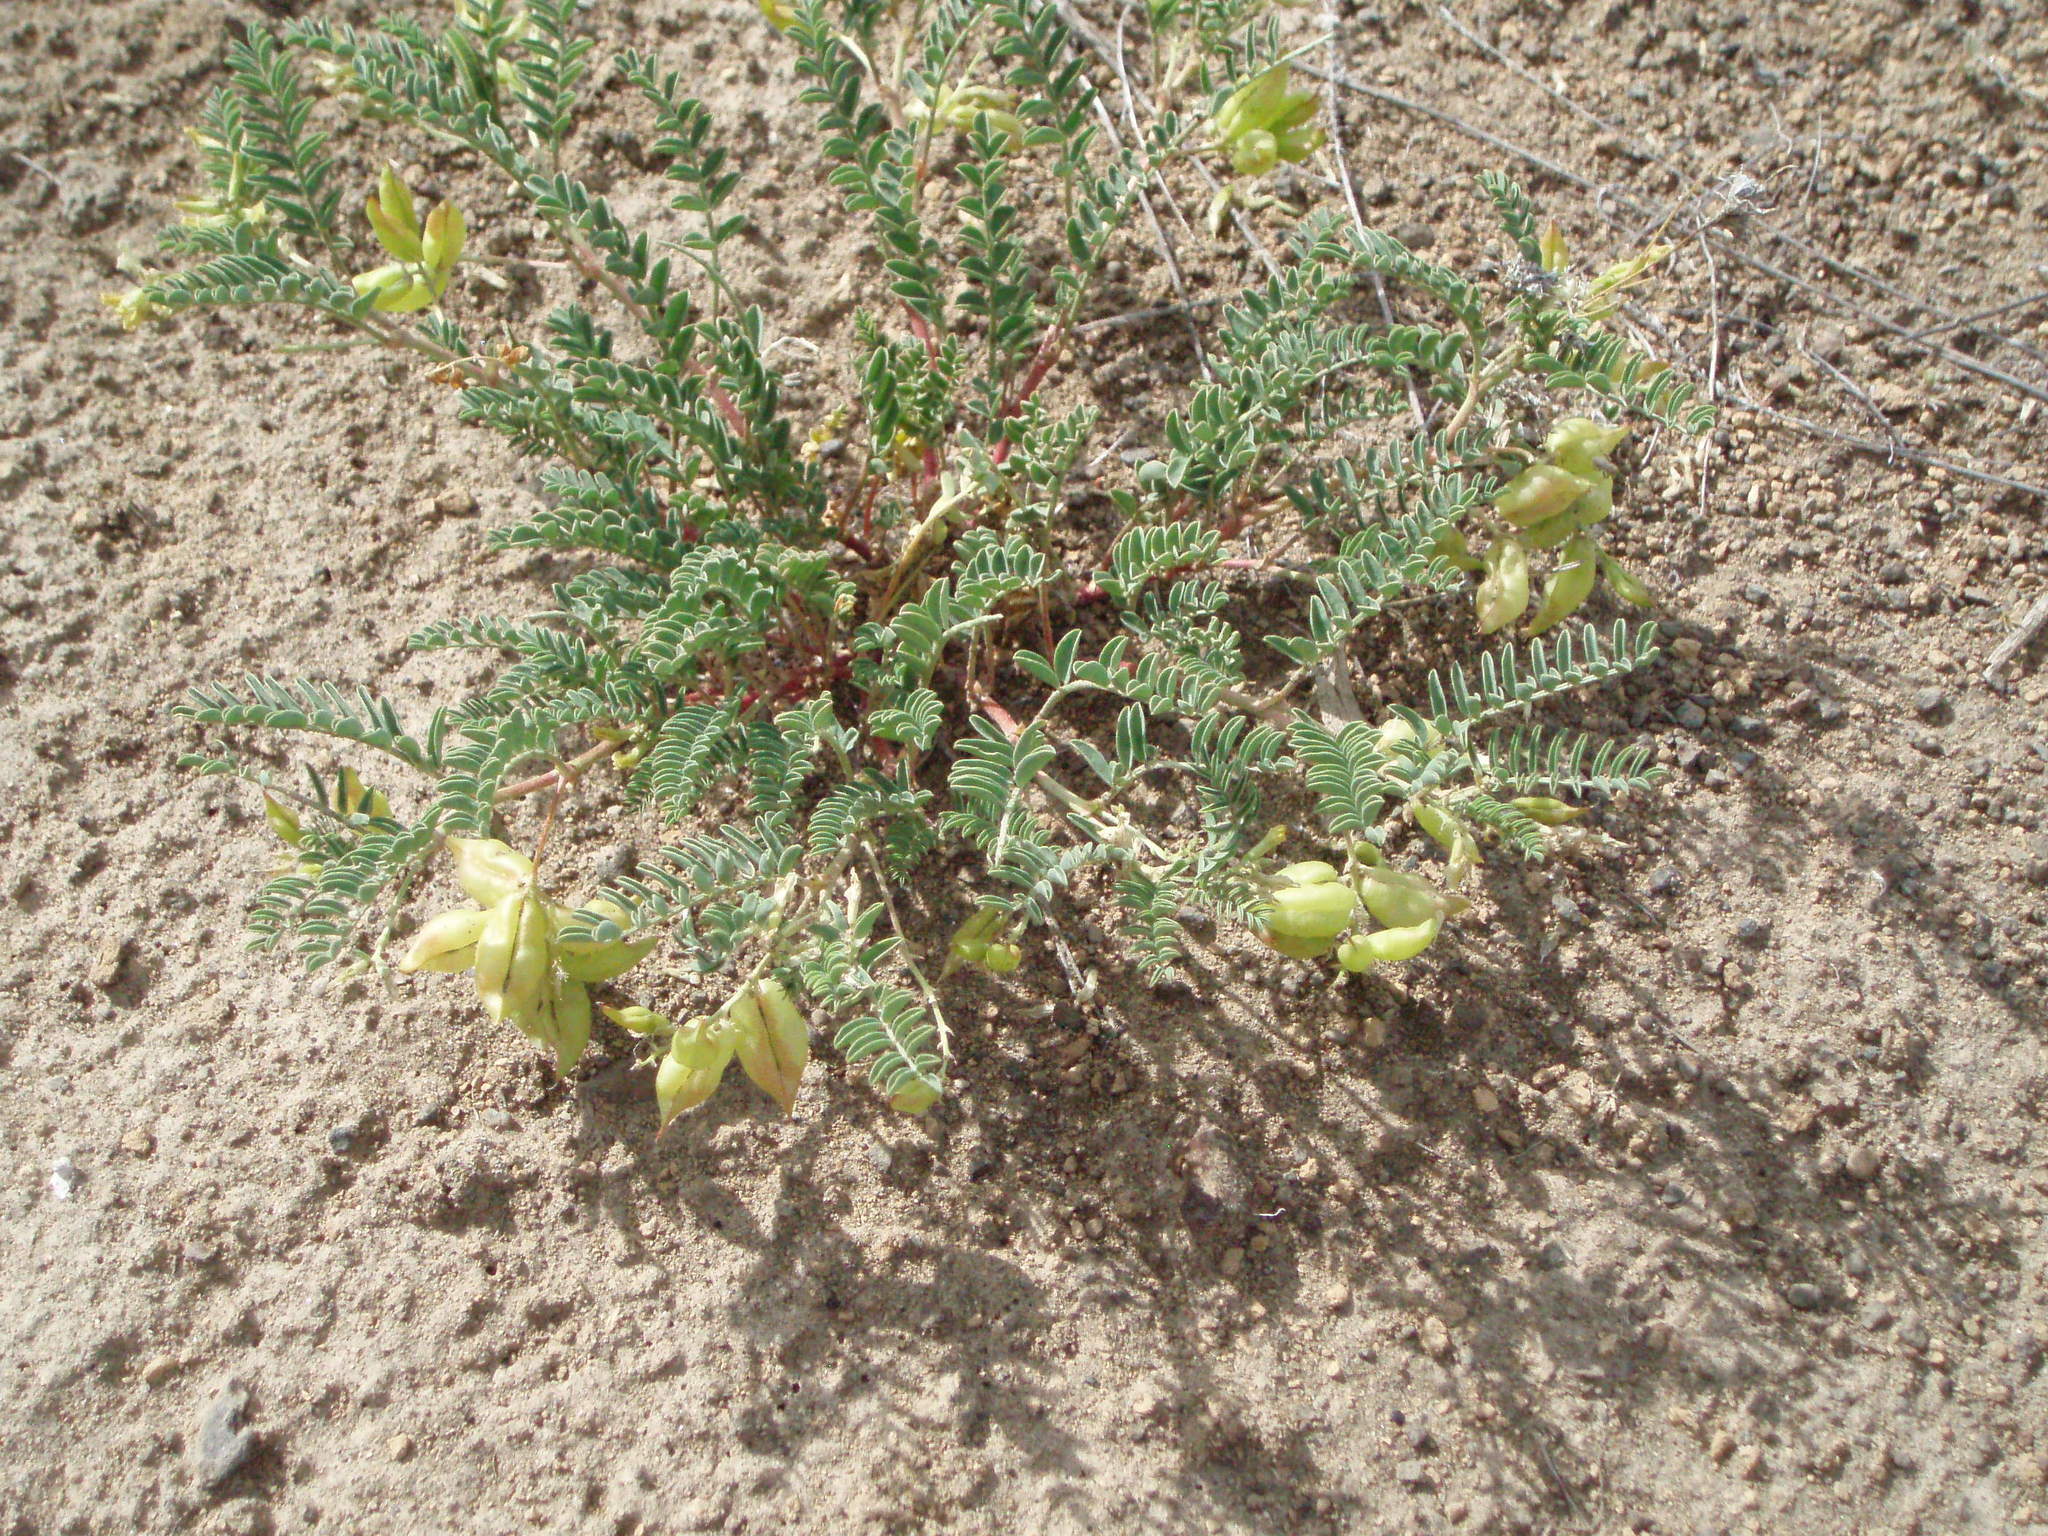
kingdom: Plantae
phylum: Tracheophyta
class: Magnoliopsida
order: Fabales
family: Fabaceae
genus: Astragalus
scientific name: Astragalus lentiginosus
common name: Freckled milkvetch
